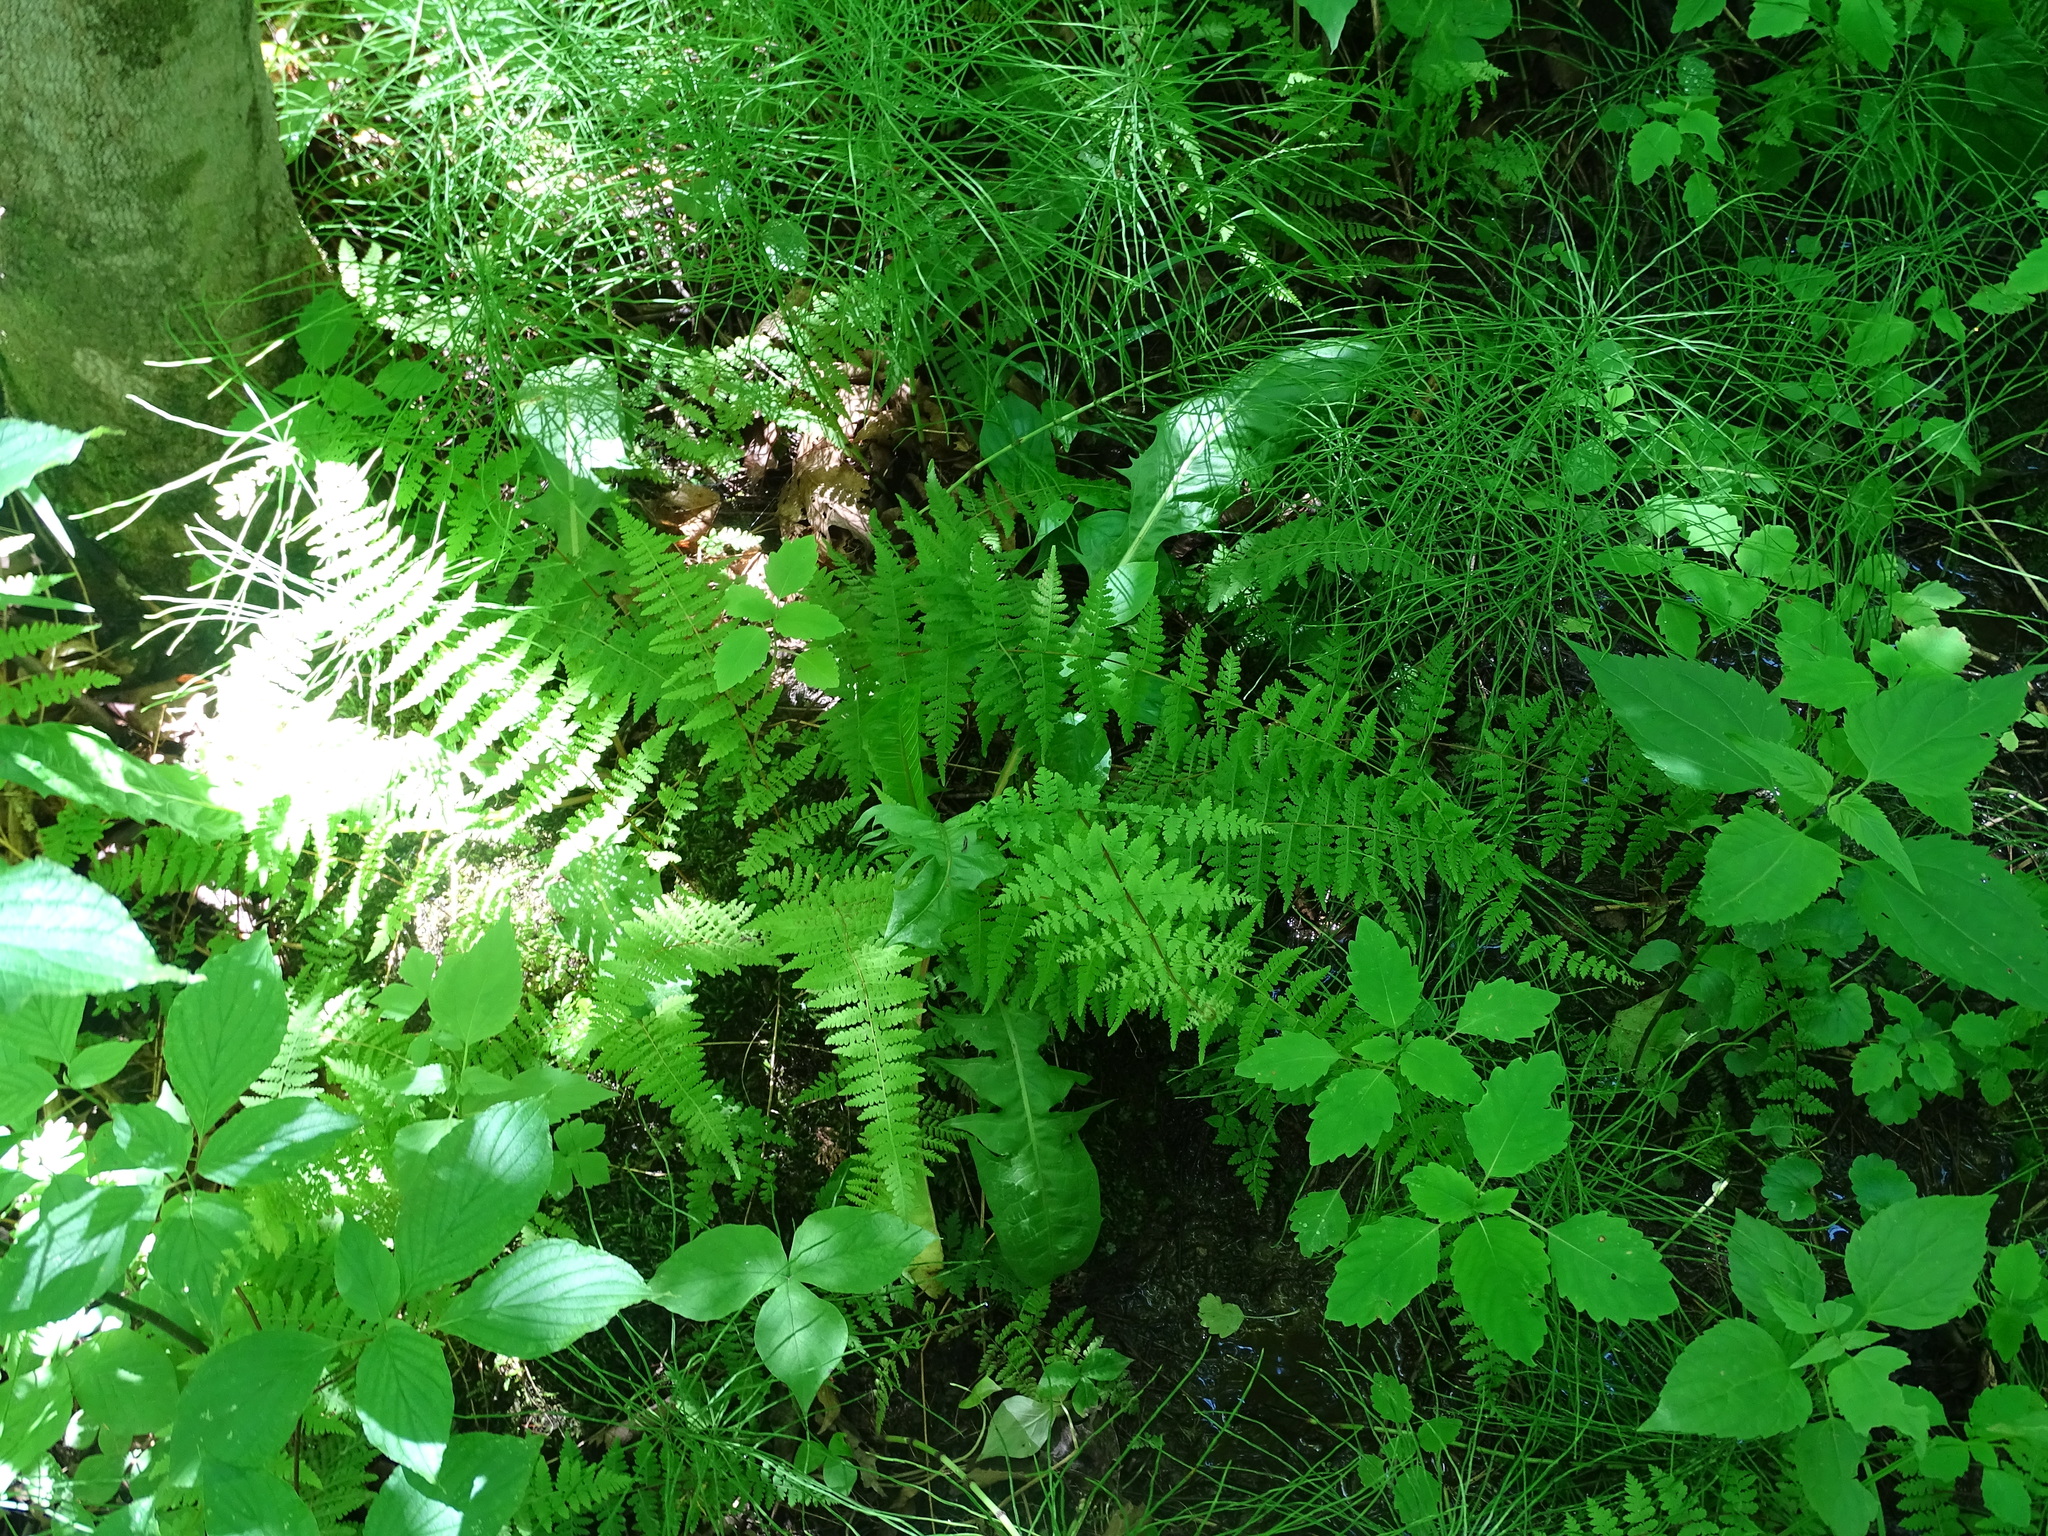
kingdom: Plantae
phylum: Tracheophyta
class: Polypodiopsida
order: Polypodiales
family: Cystopteridaceae
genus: Cystopteris
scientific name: Cystopteris bulbifera
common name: Bulblet bladder fern
